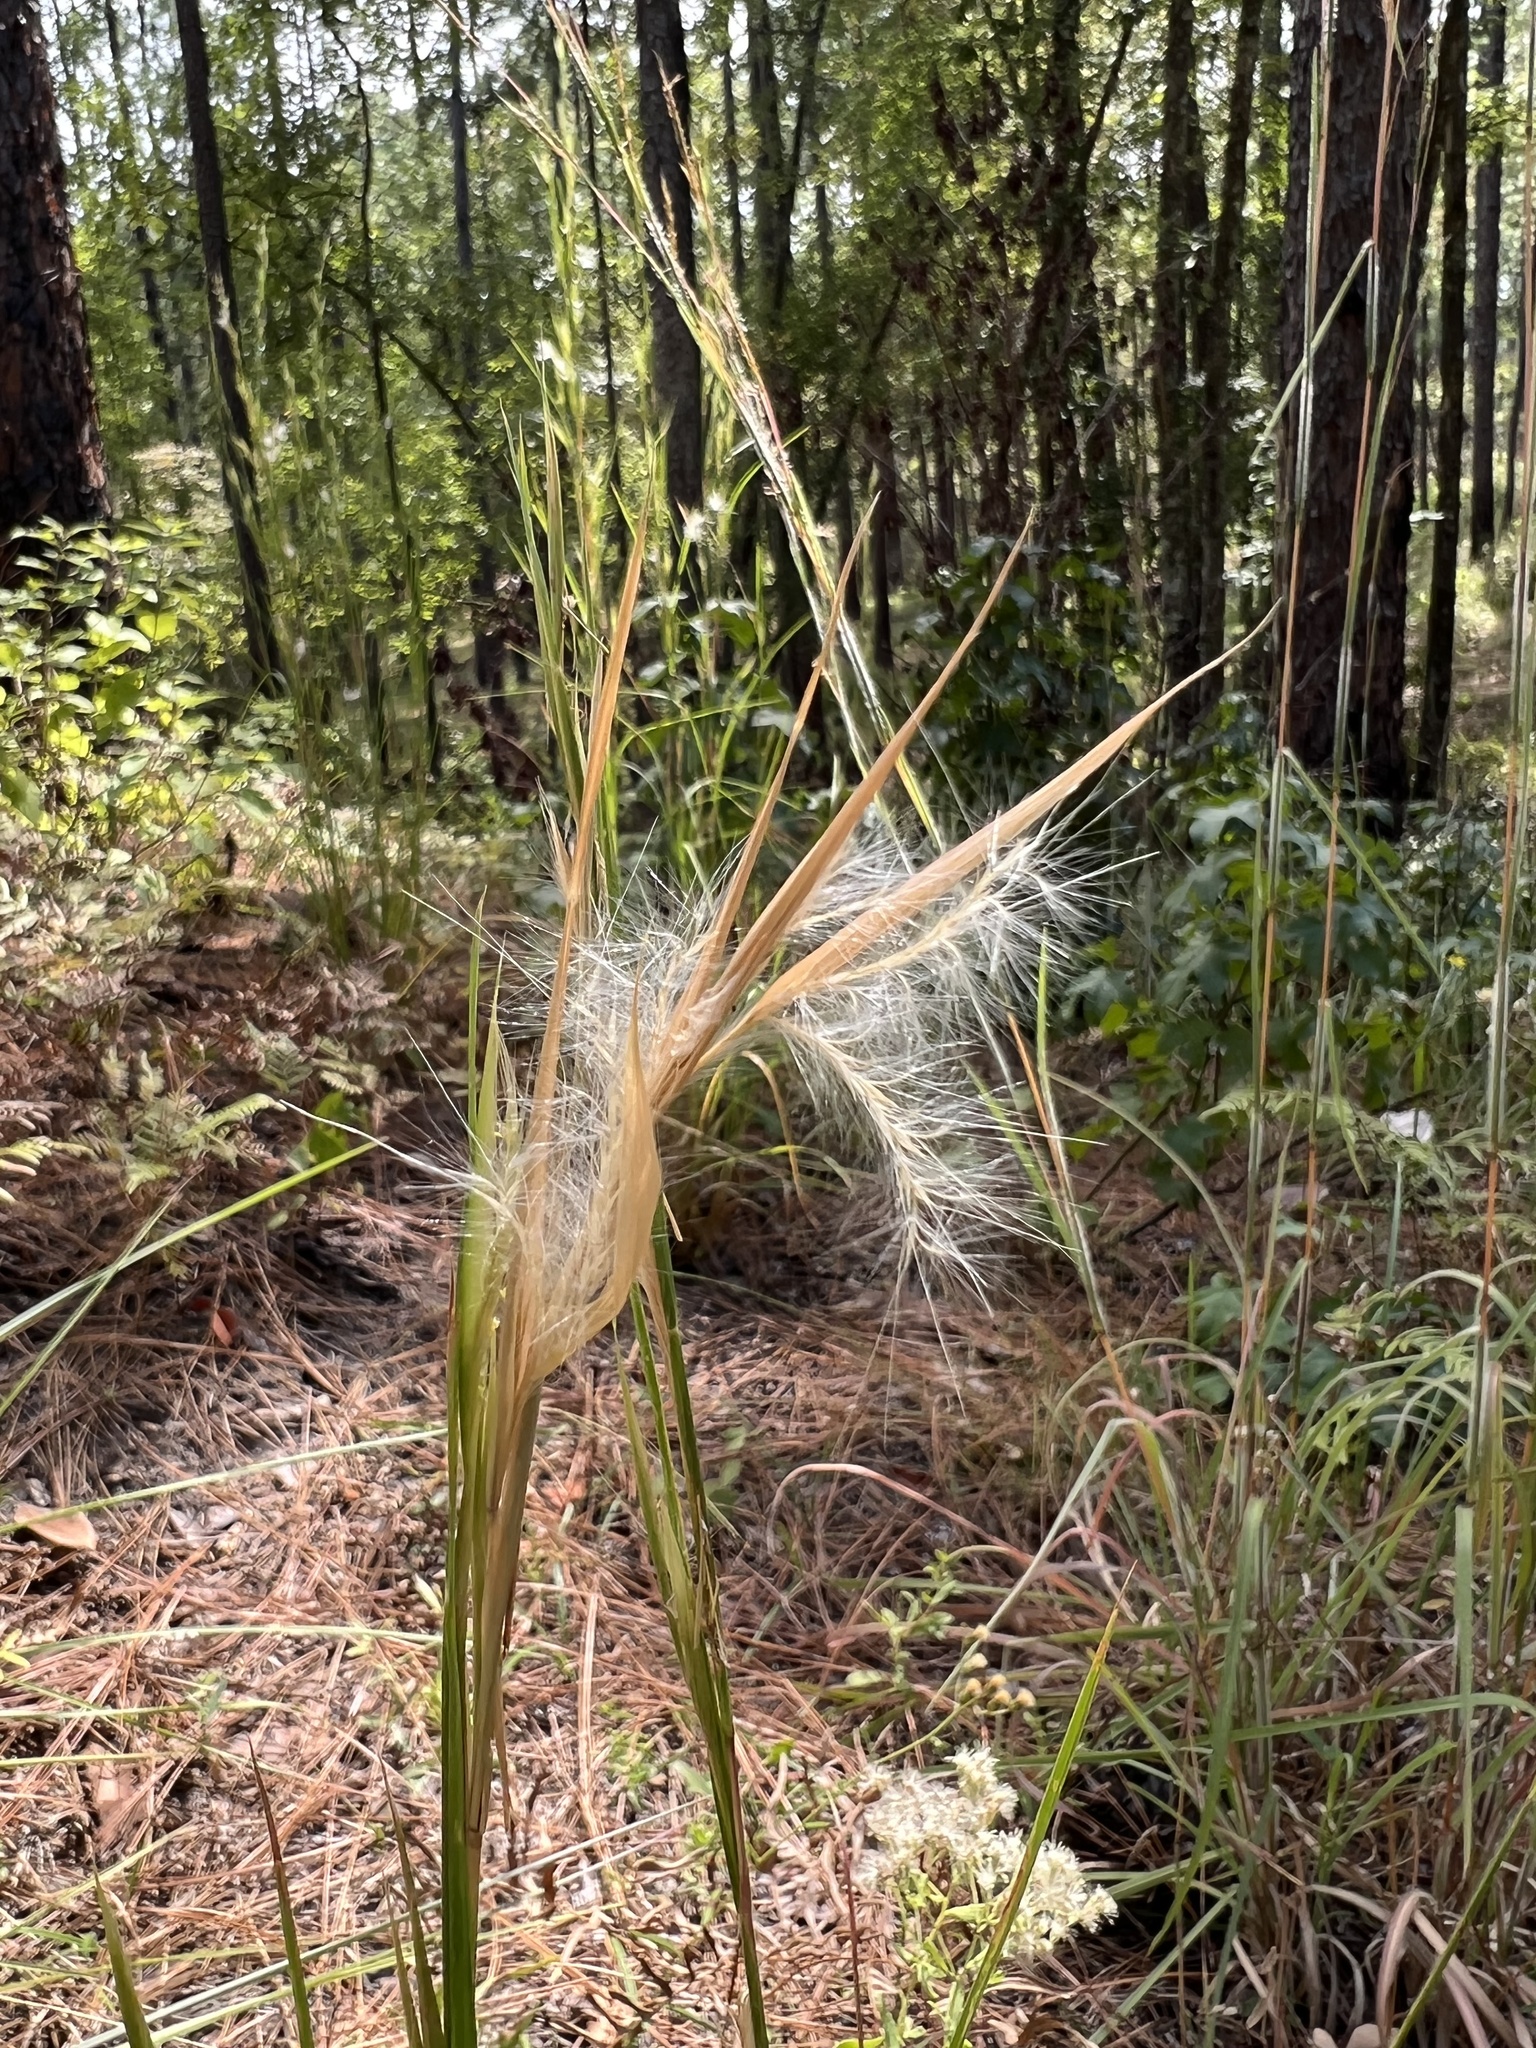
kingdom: Plantae
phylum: Tracheophyta
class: Liliopsida
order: Poales
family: Poaceae
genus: Andropogon
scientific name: Andropogon ternarius
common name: Split bluestem
